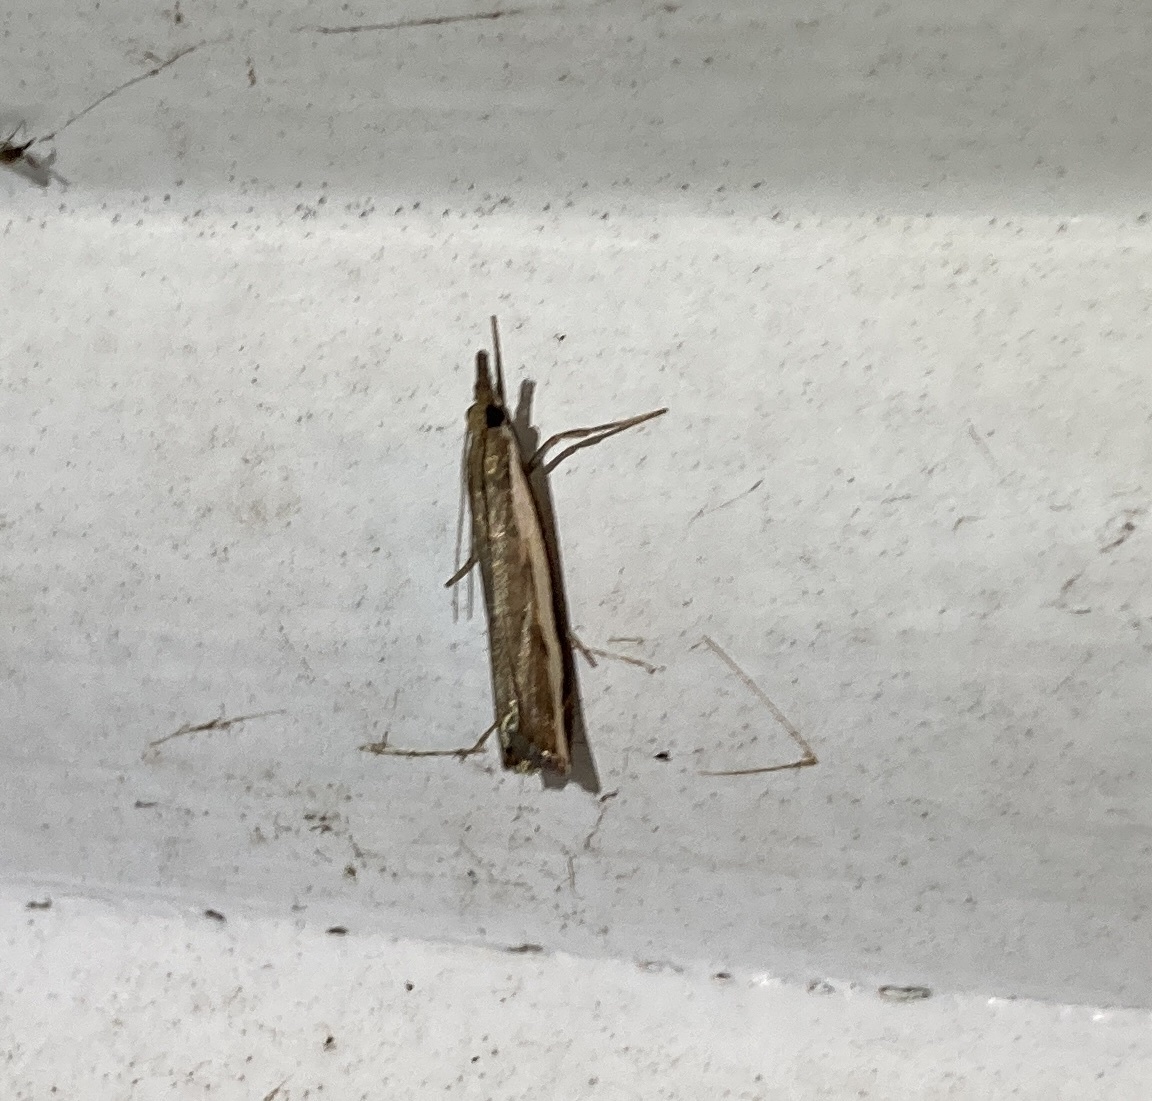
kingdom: Animalia
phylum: Arthropoda
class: Insecta
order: Lepidoptera
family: Crambidae
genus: Orocrambus
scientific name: Orocrambus flexuosellus
